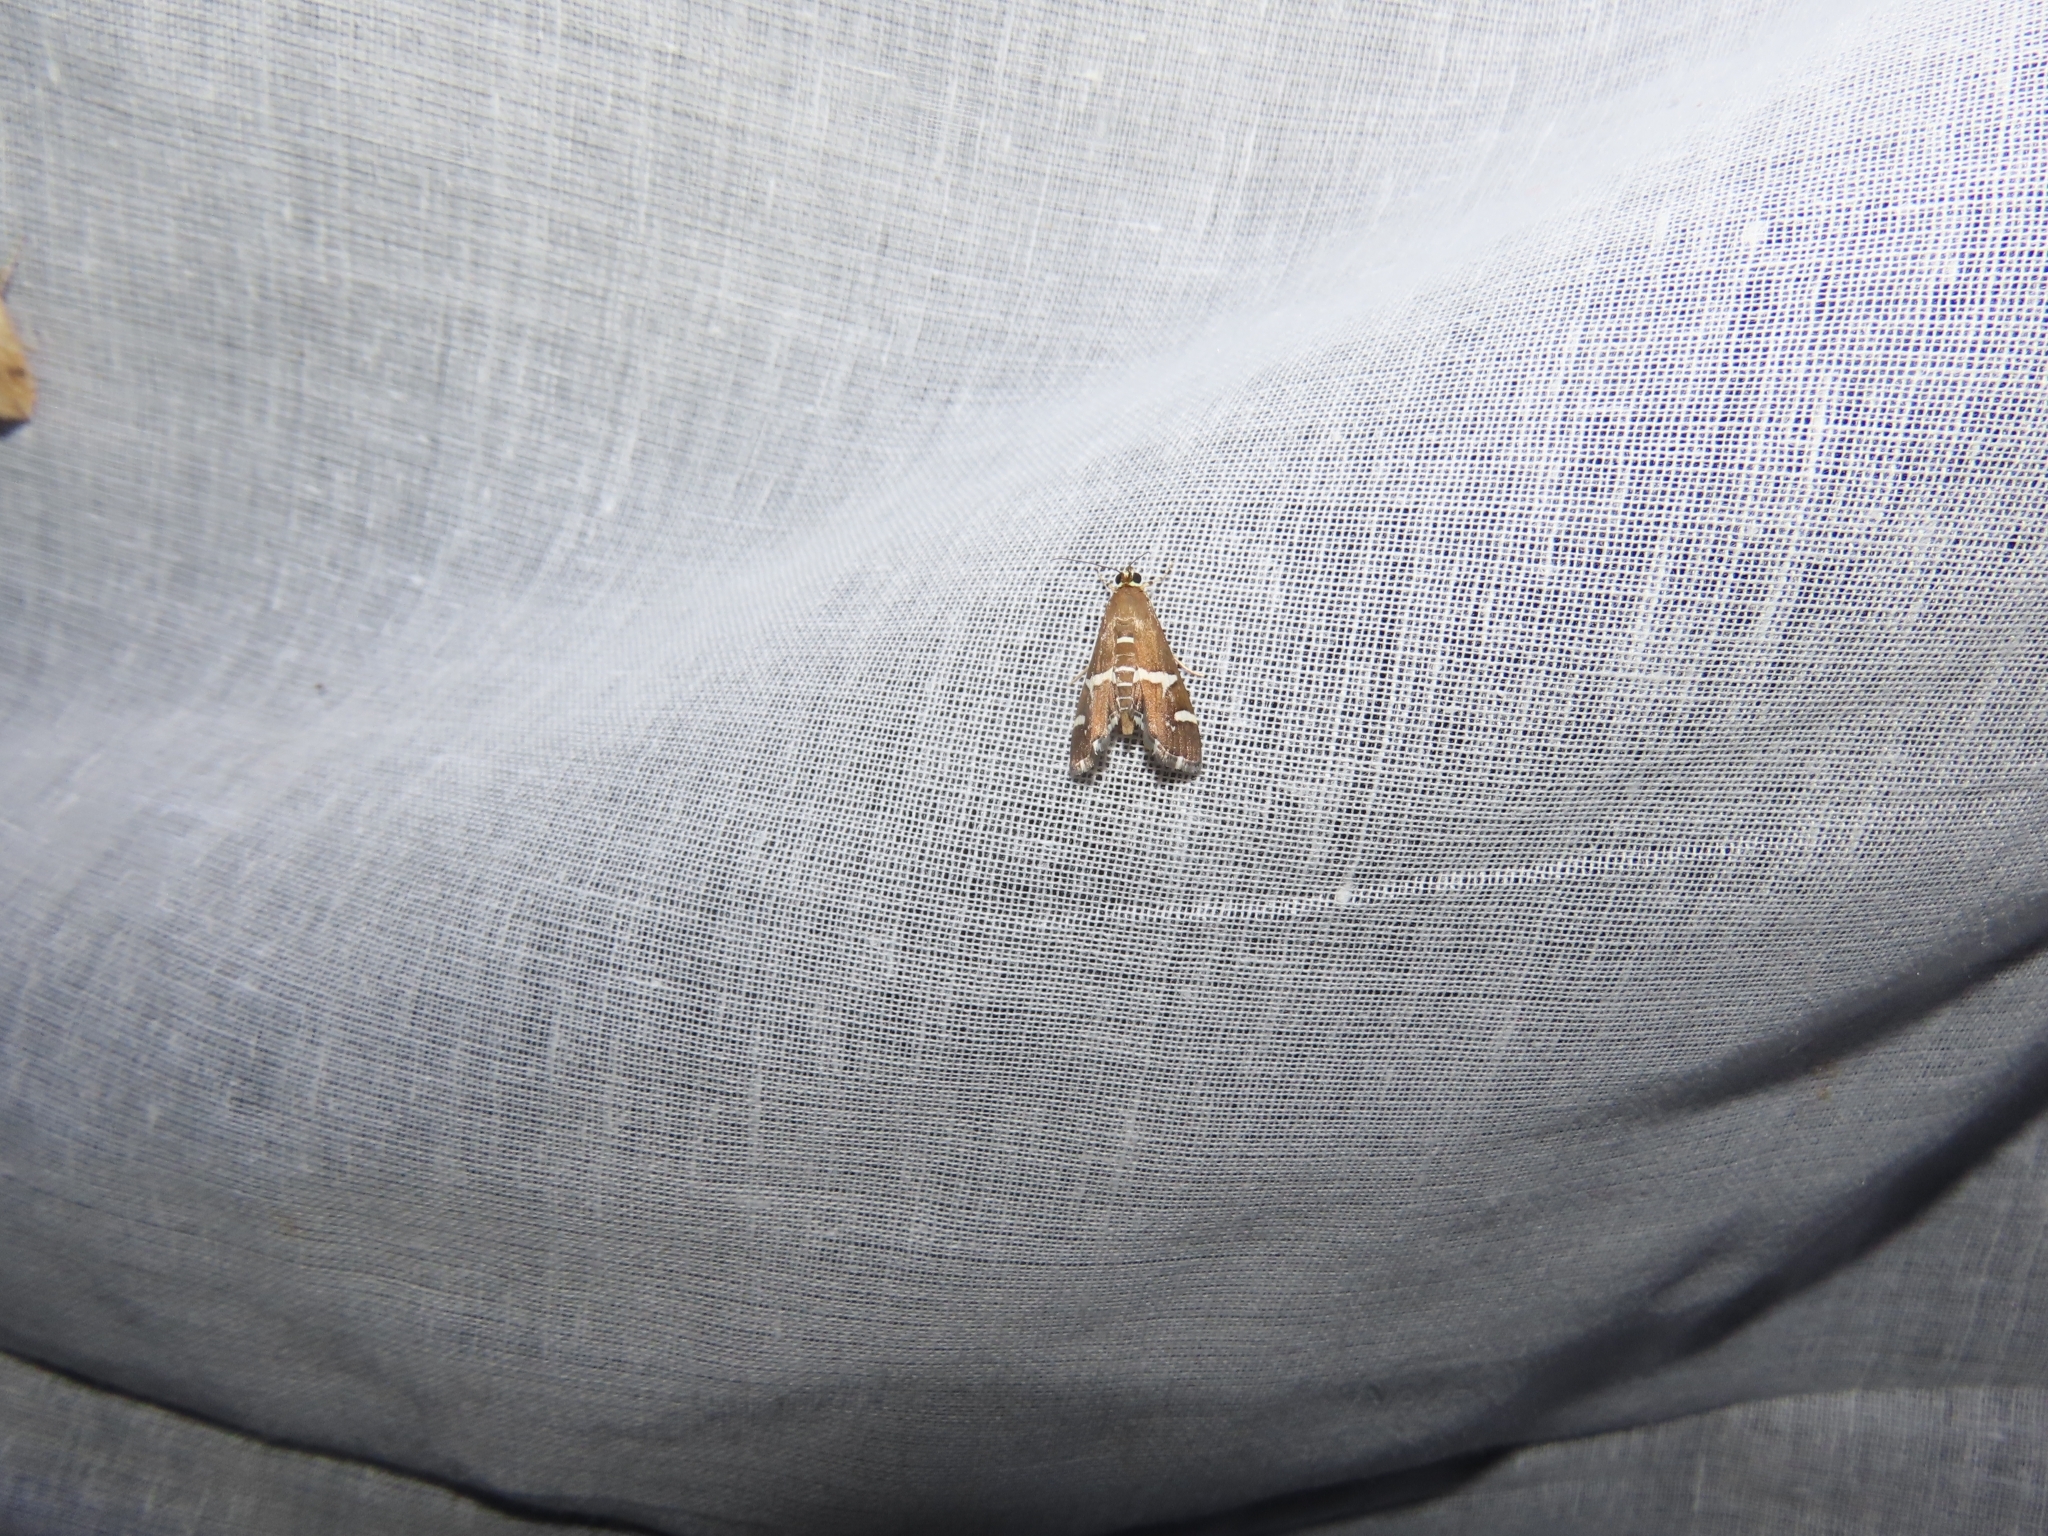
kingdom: Animalia
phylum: Arthropoda
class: Insecta
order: Lepidoptera
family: Crambidae
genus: Spoladea
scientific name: Spoladea recurvalis
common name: Beet webworm moth
